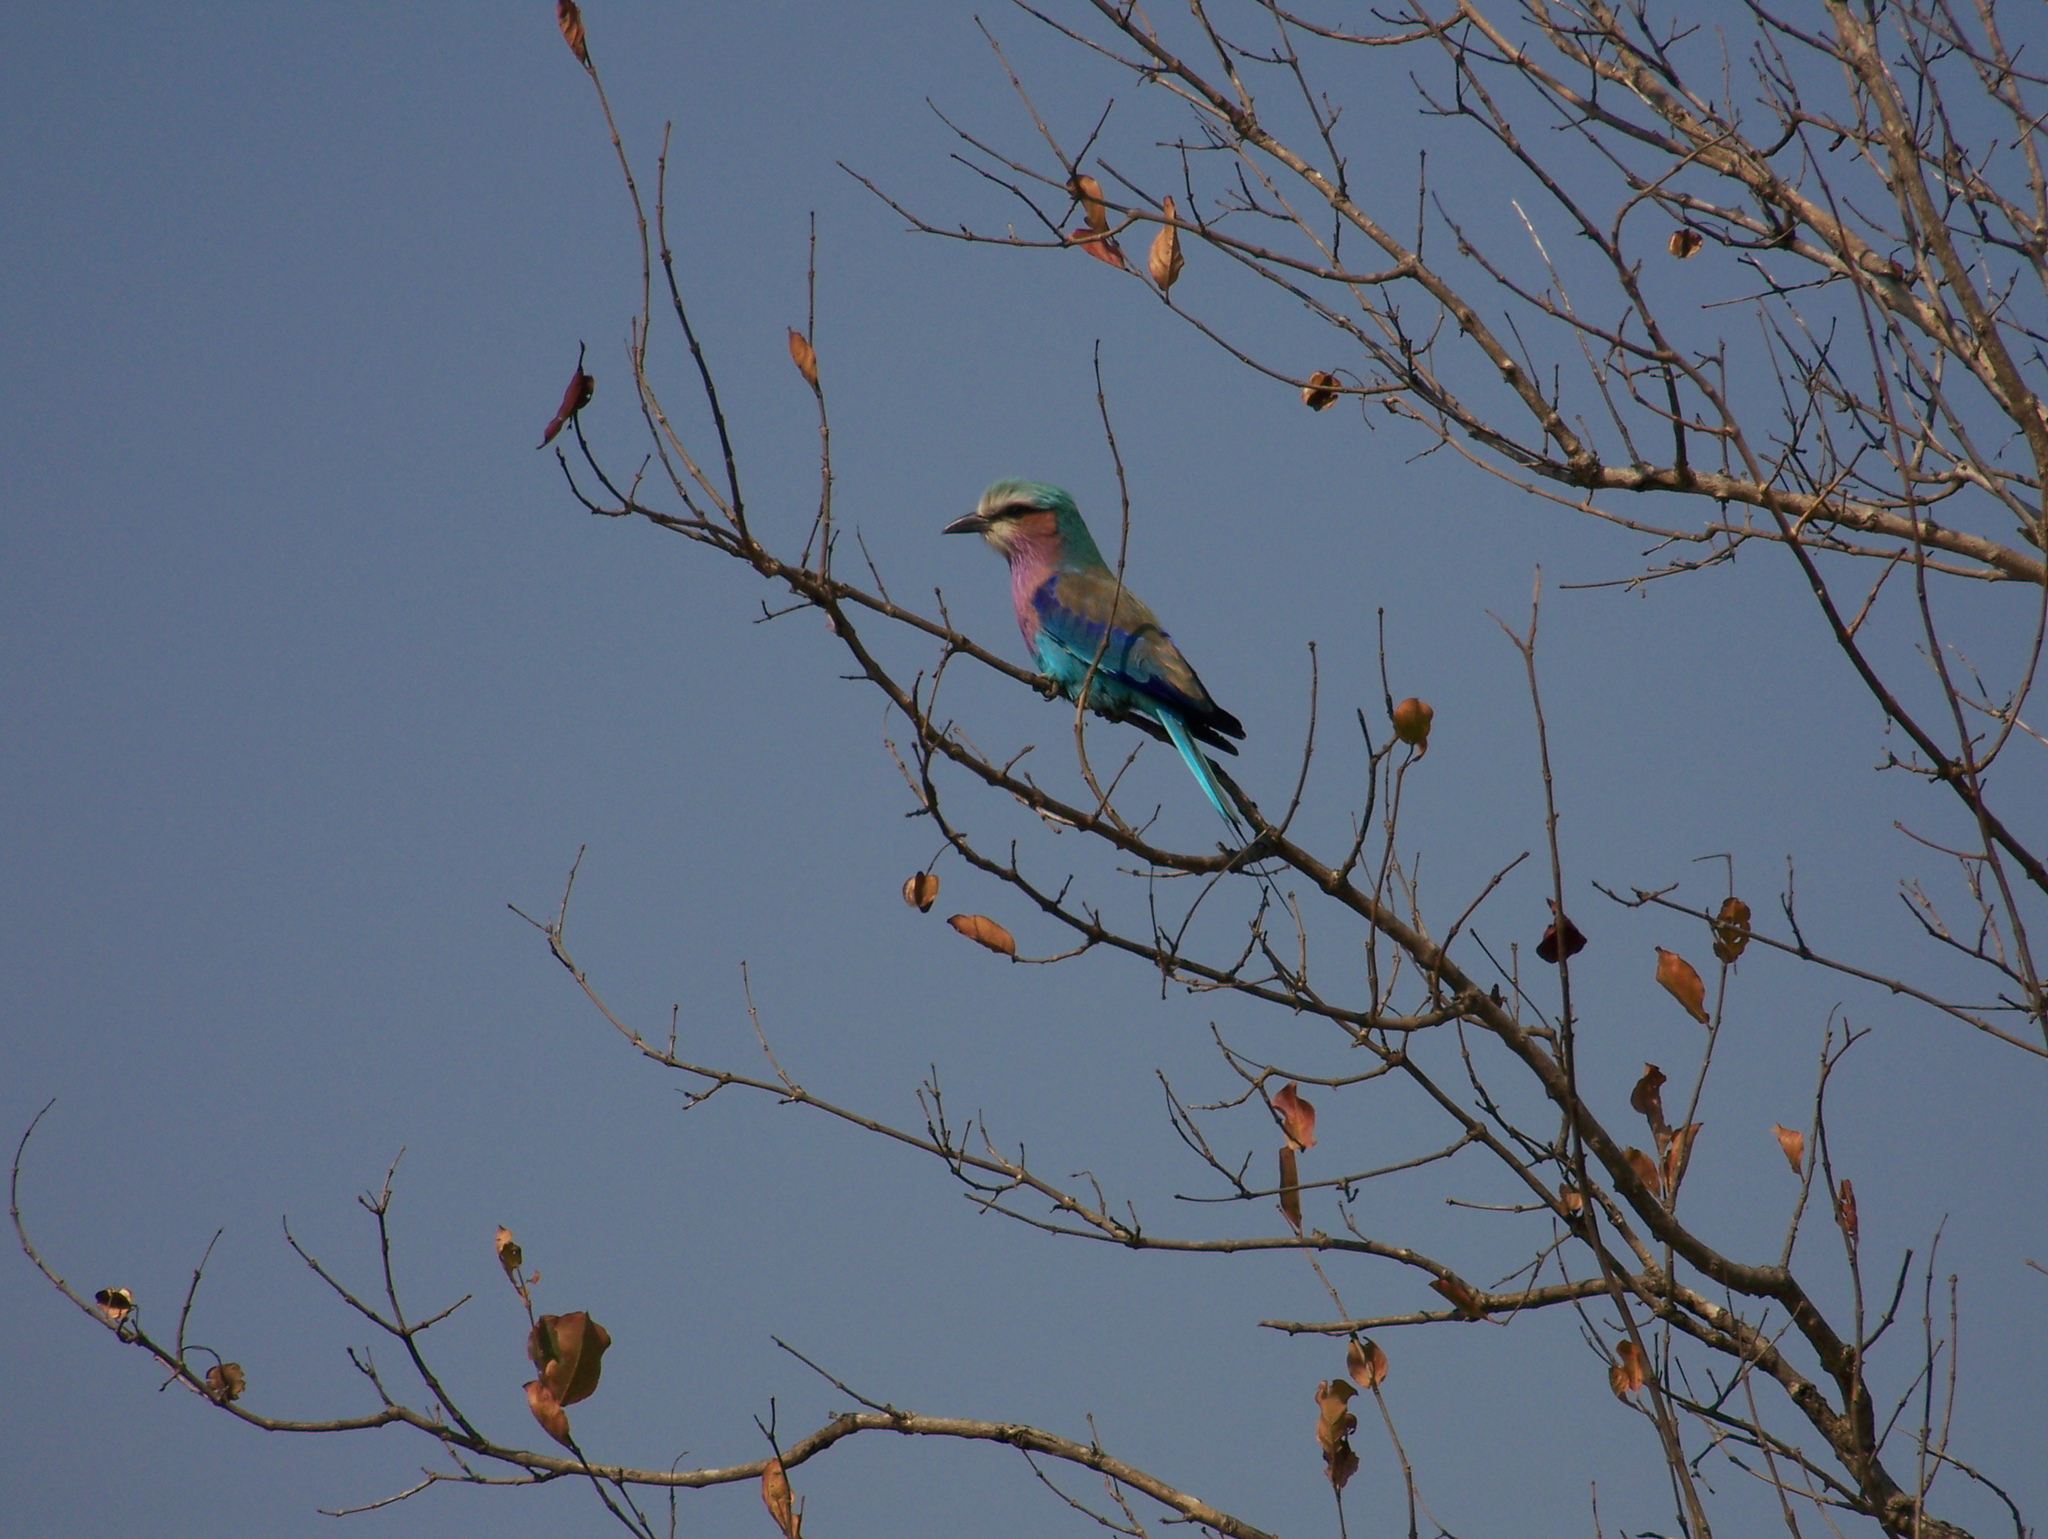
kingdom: Animalia
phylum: Chordata
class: Aves
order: Coraciiformes
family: Coraciidae
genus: Coracias
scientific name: Coracias caudatus
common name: Lilac-breasted roller
